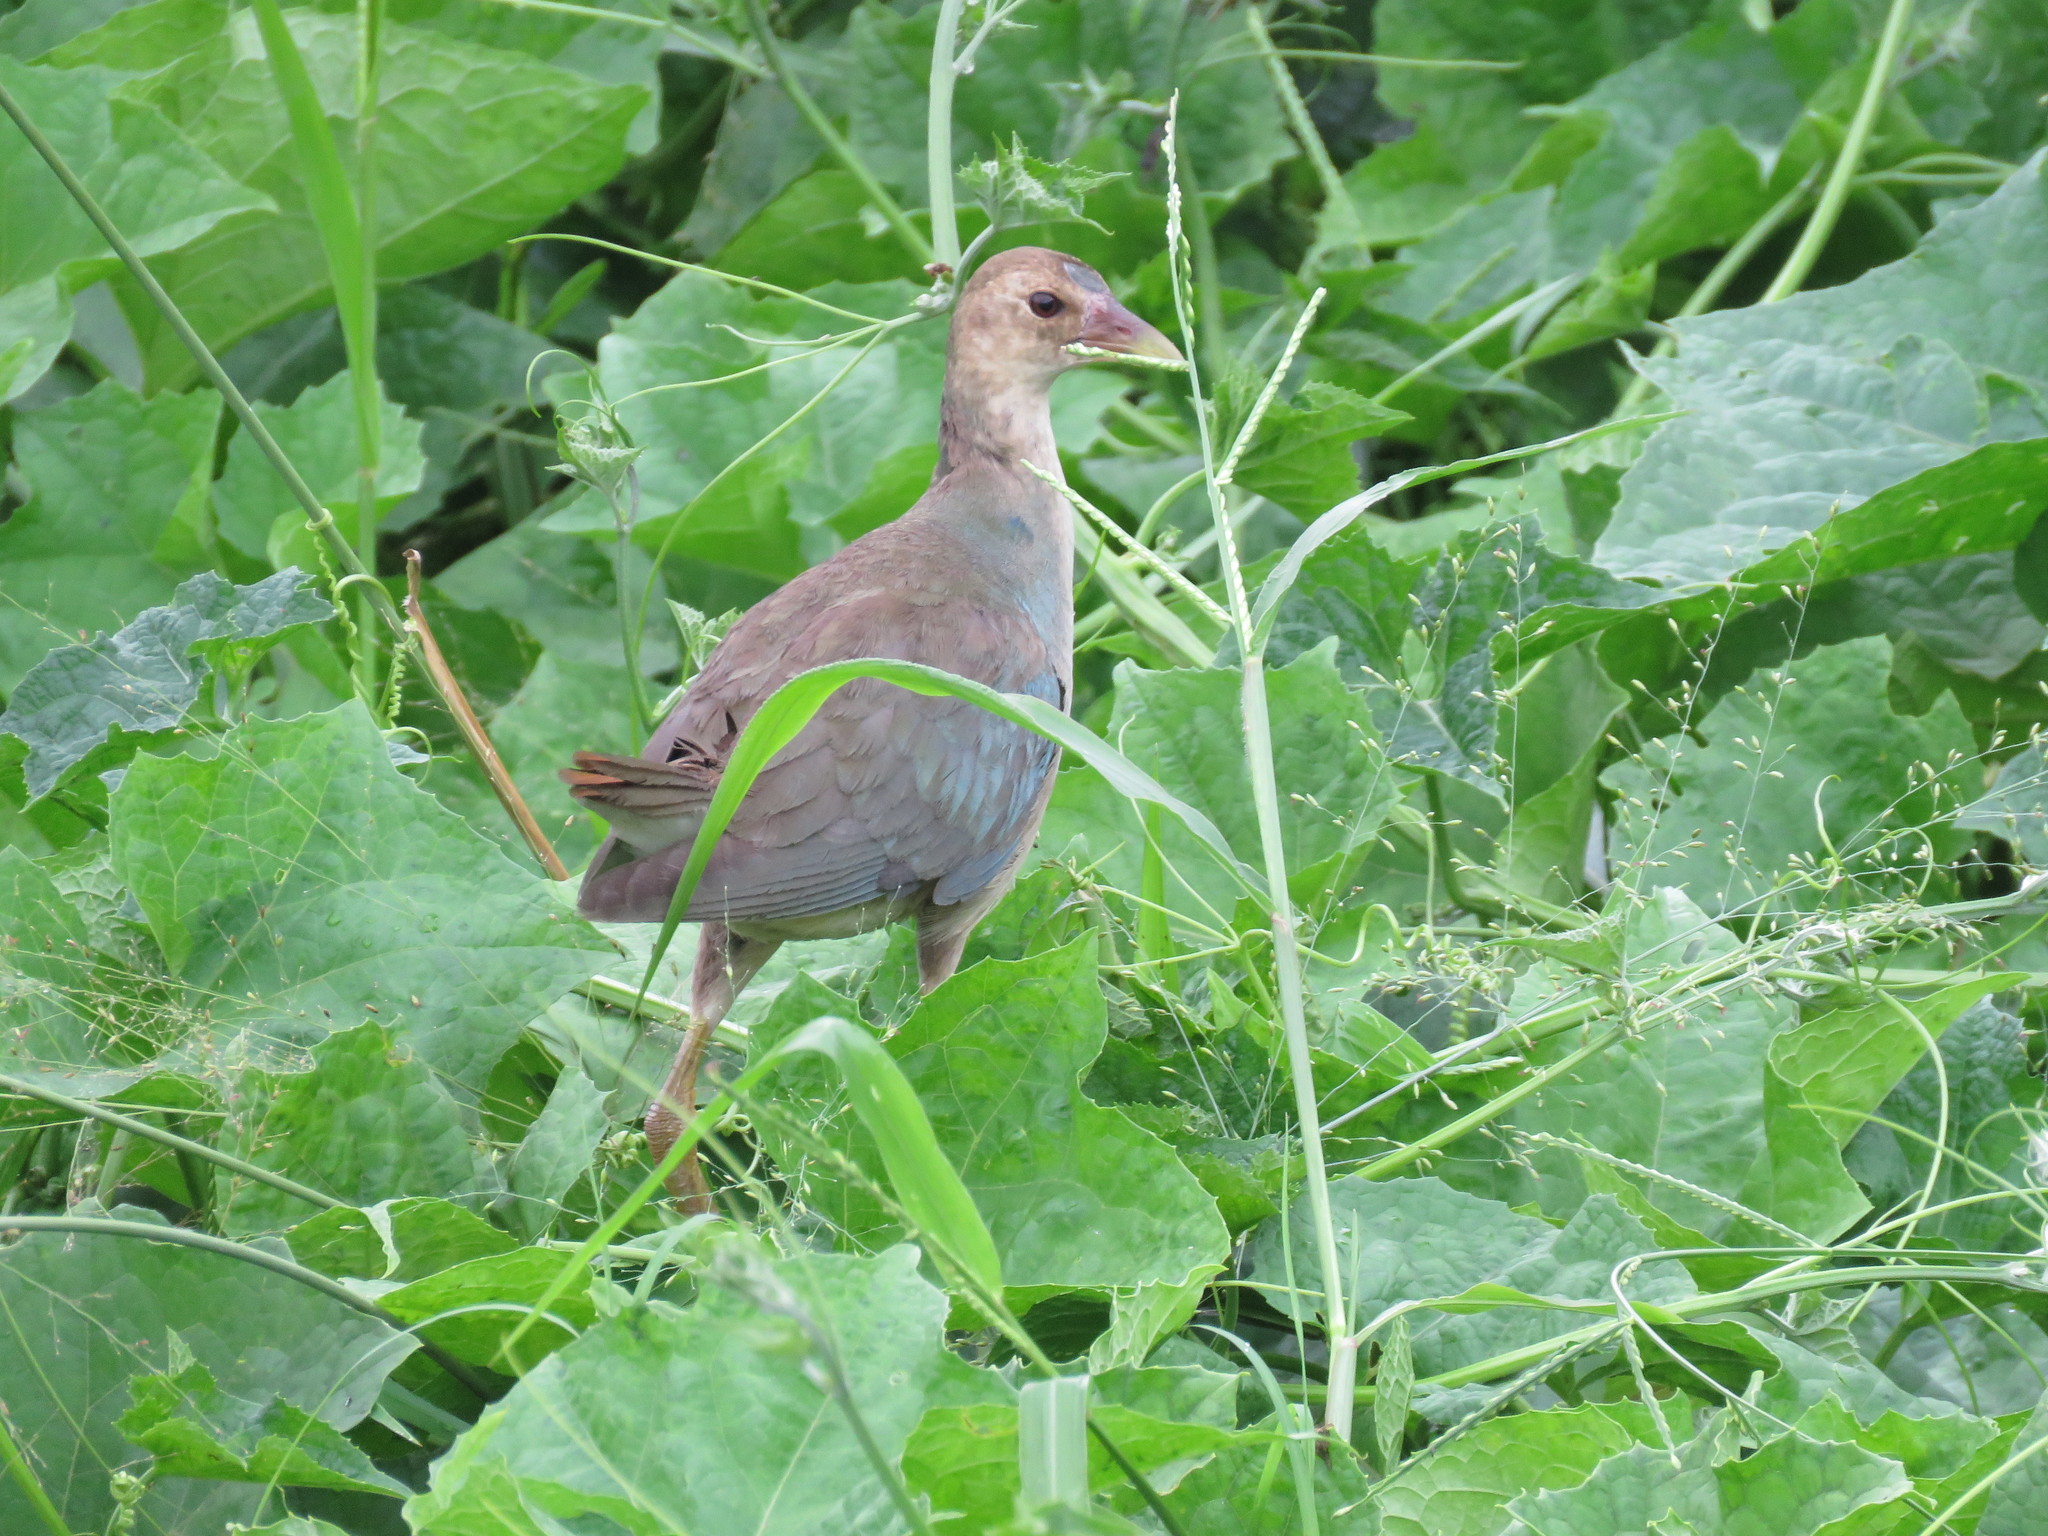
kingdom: Animalia
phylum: Chordata
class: Aves
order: Gruiformes
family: Rallidae
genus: Porphyrio
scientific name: Porphyrio martinica
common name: Purple gallinule
